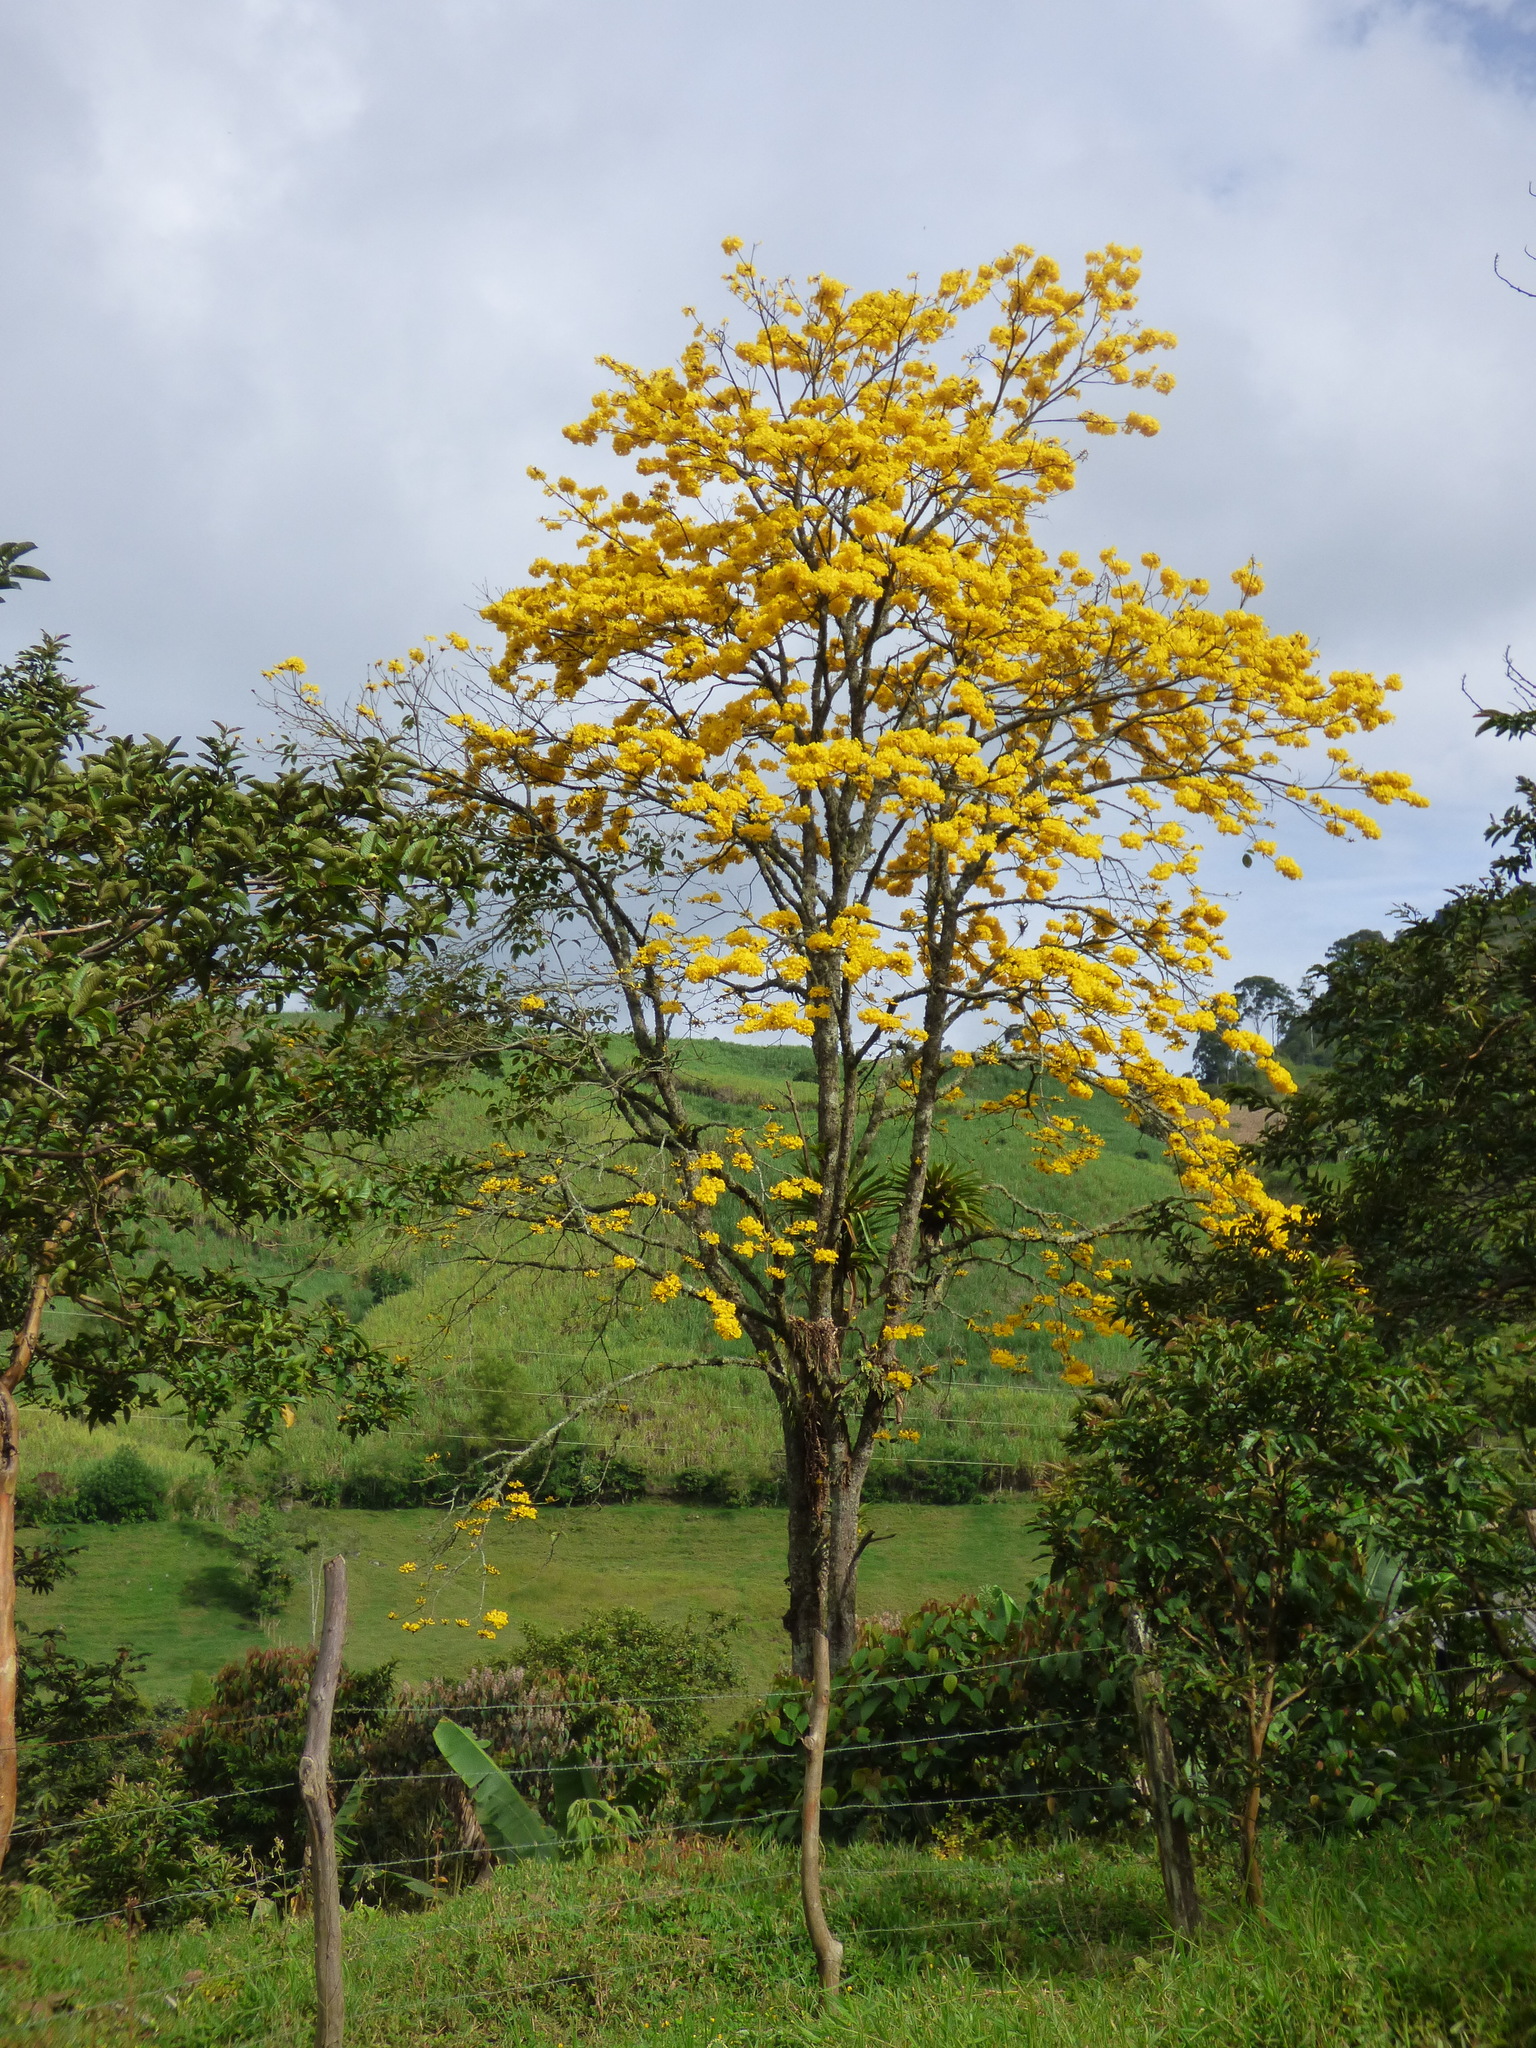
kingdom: Plantae
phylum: Tracheophyta
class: Magnoliopsida
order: Lamiales
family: Bignoniaceae
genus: Handroanthus
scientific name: Handroanthus chrysanthus
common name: Trumpet trees
